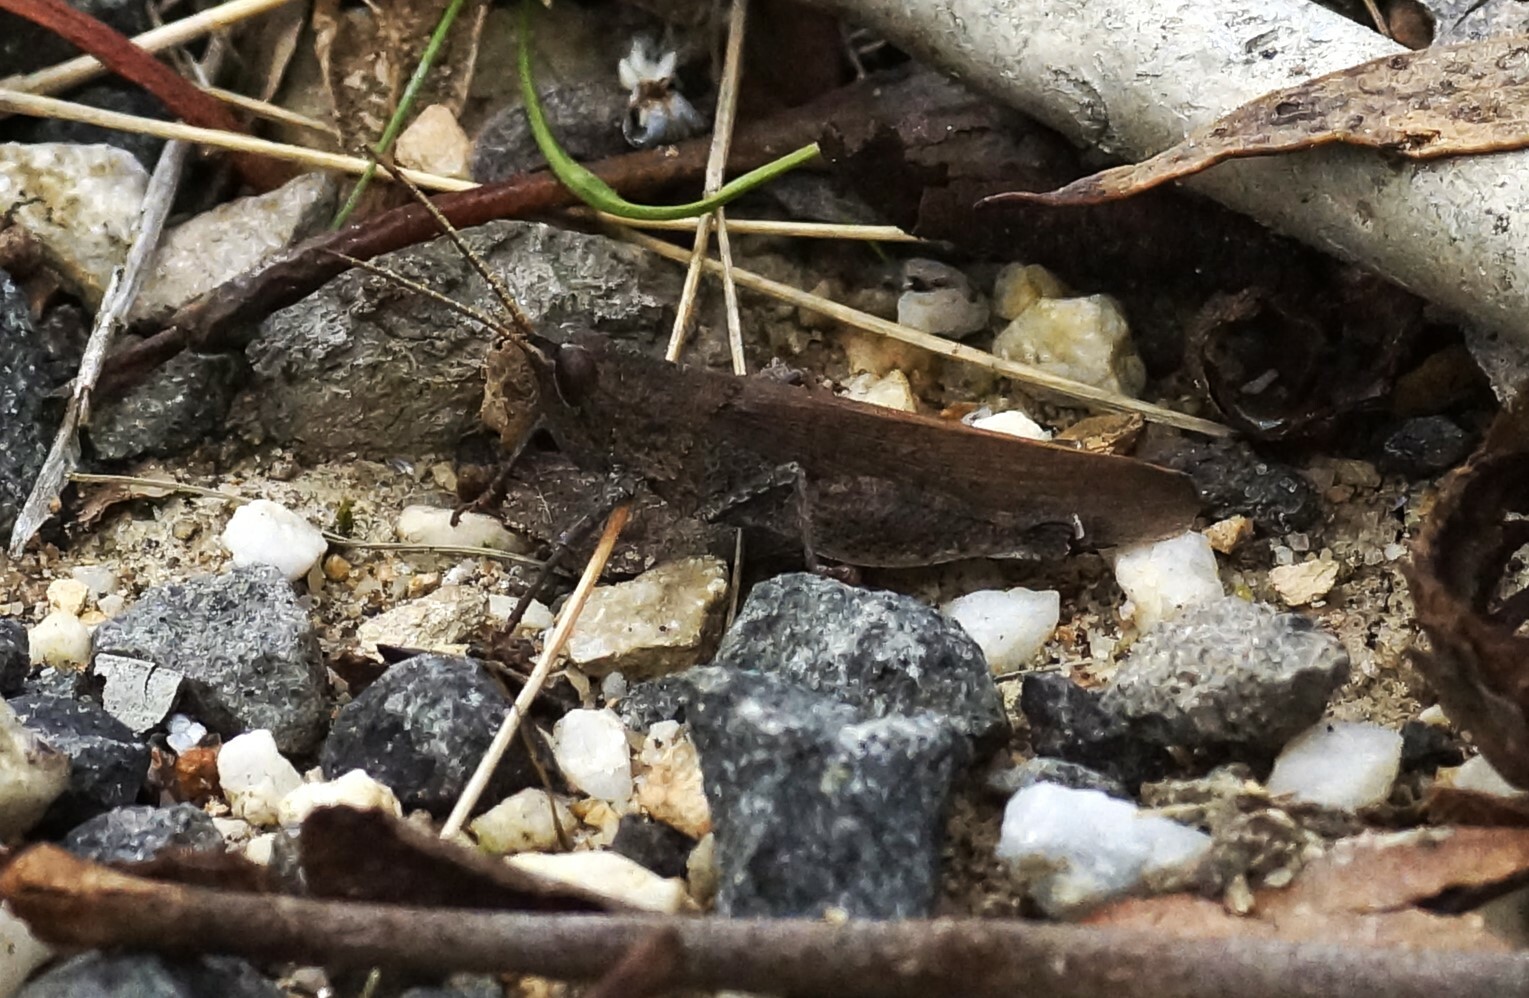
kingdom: Animalia
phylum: Arthropoda
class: Insecta
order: Orthoptera
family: Acrididae
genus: Goniaea
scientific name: Goniaea opomaloides
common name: Mimetic gumleaf grasshopper
